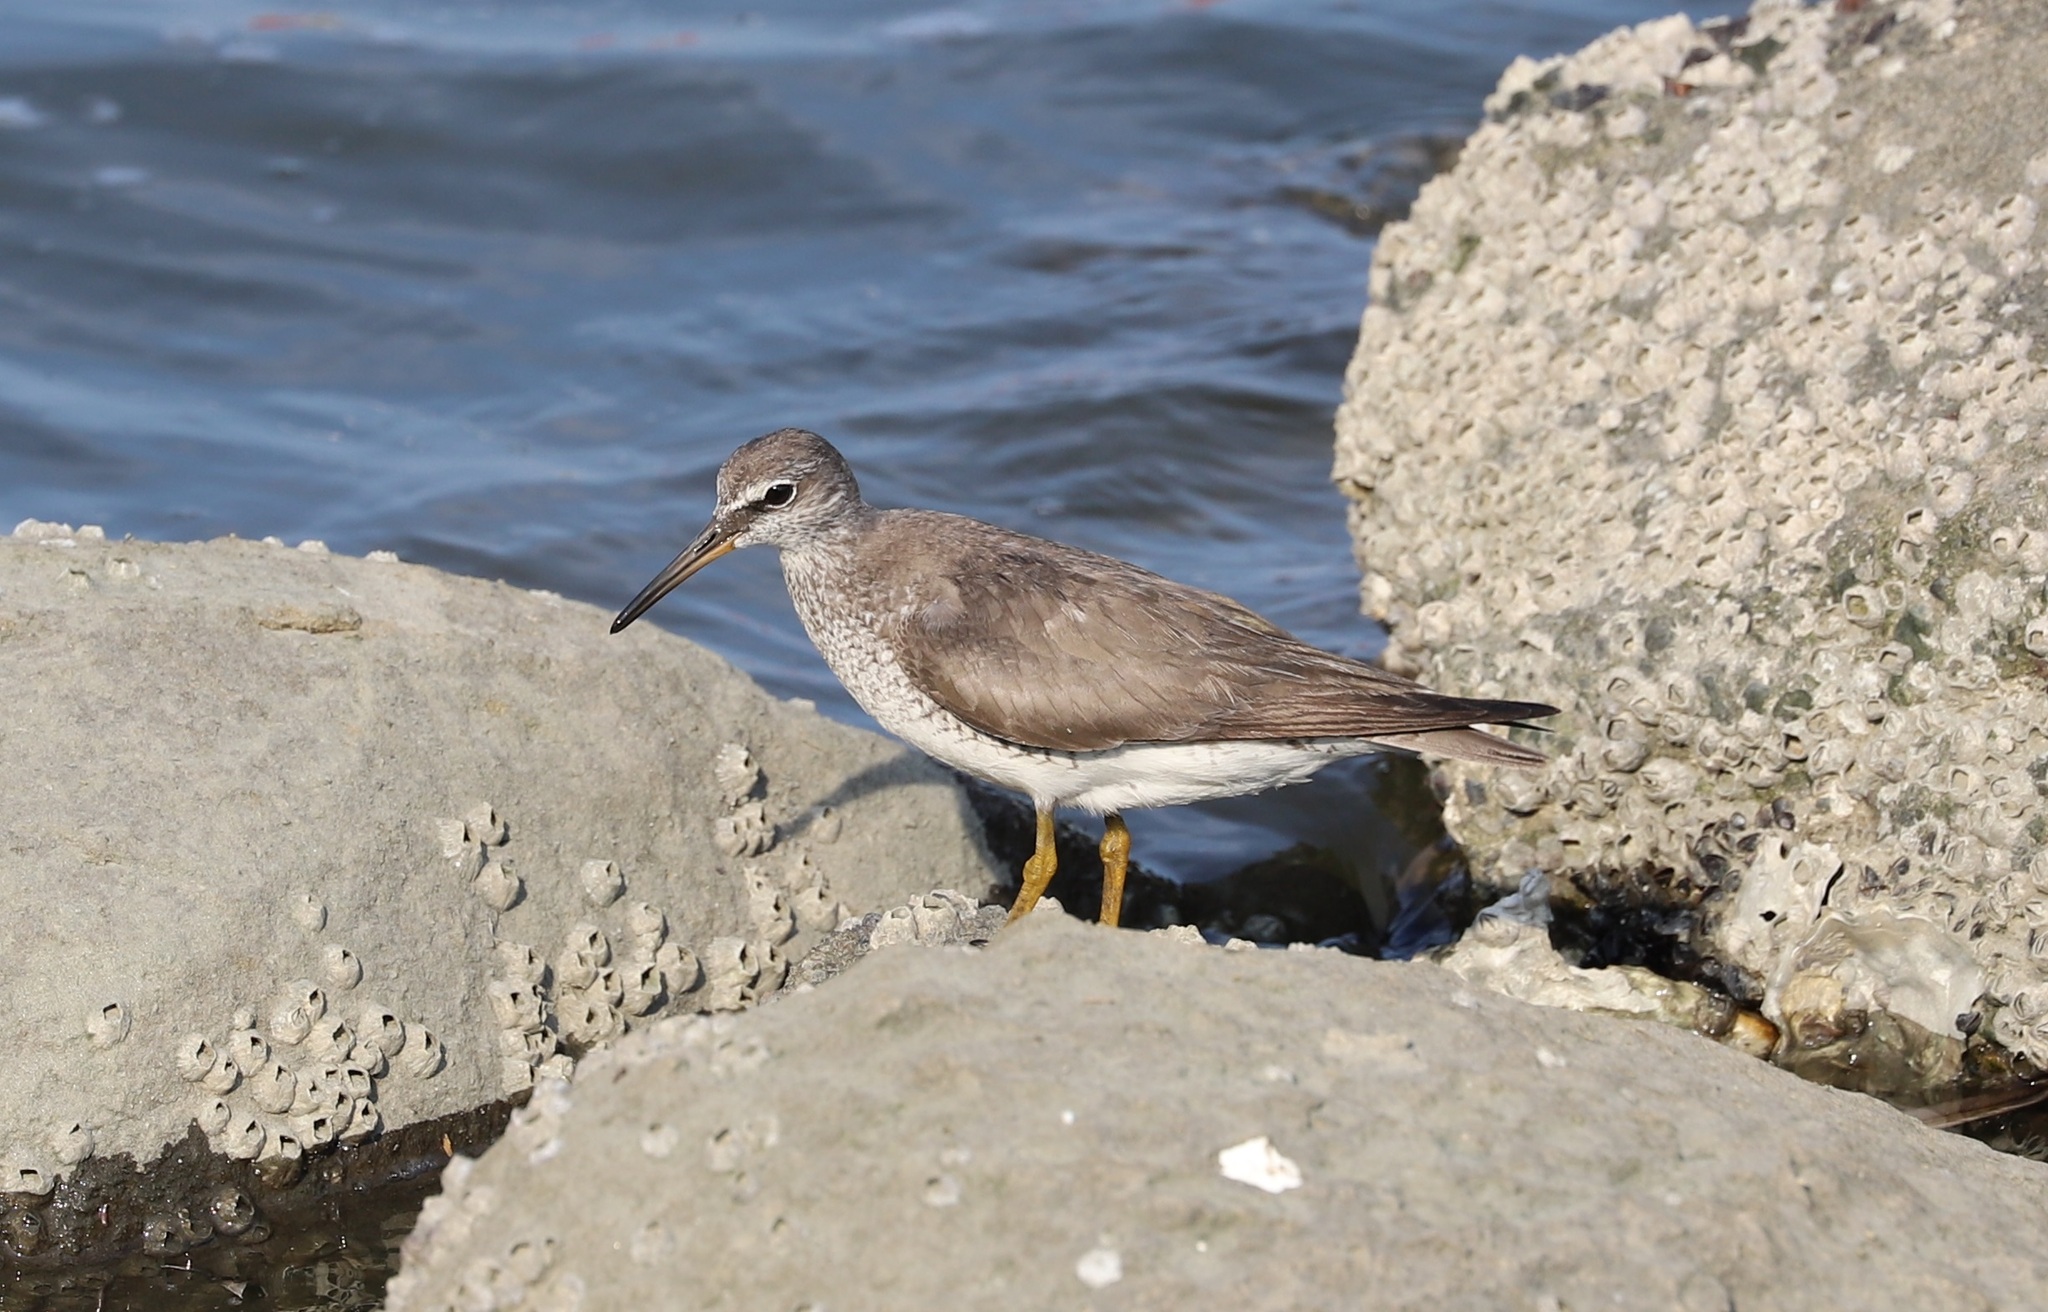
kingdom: Animalia
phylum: Chordata
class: Aves
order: Charadriiformes
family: Scolopacidae
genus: Tringa
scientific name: Tringa brevipes
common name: Grey-tailed tattler
